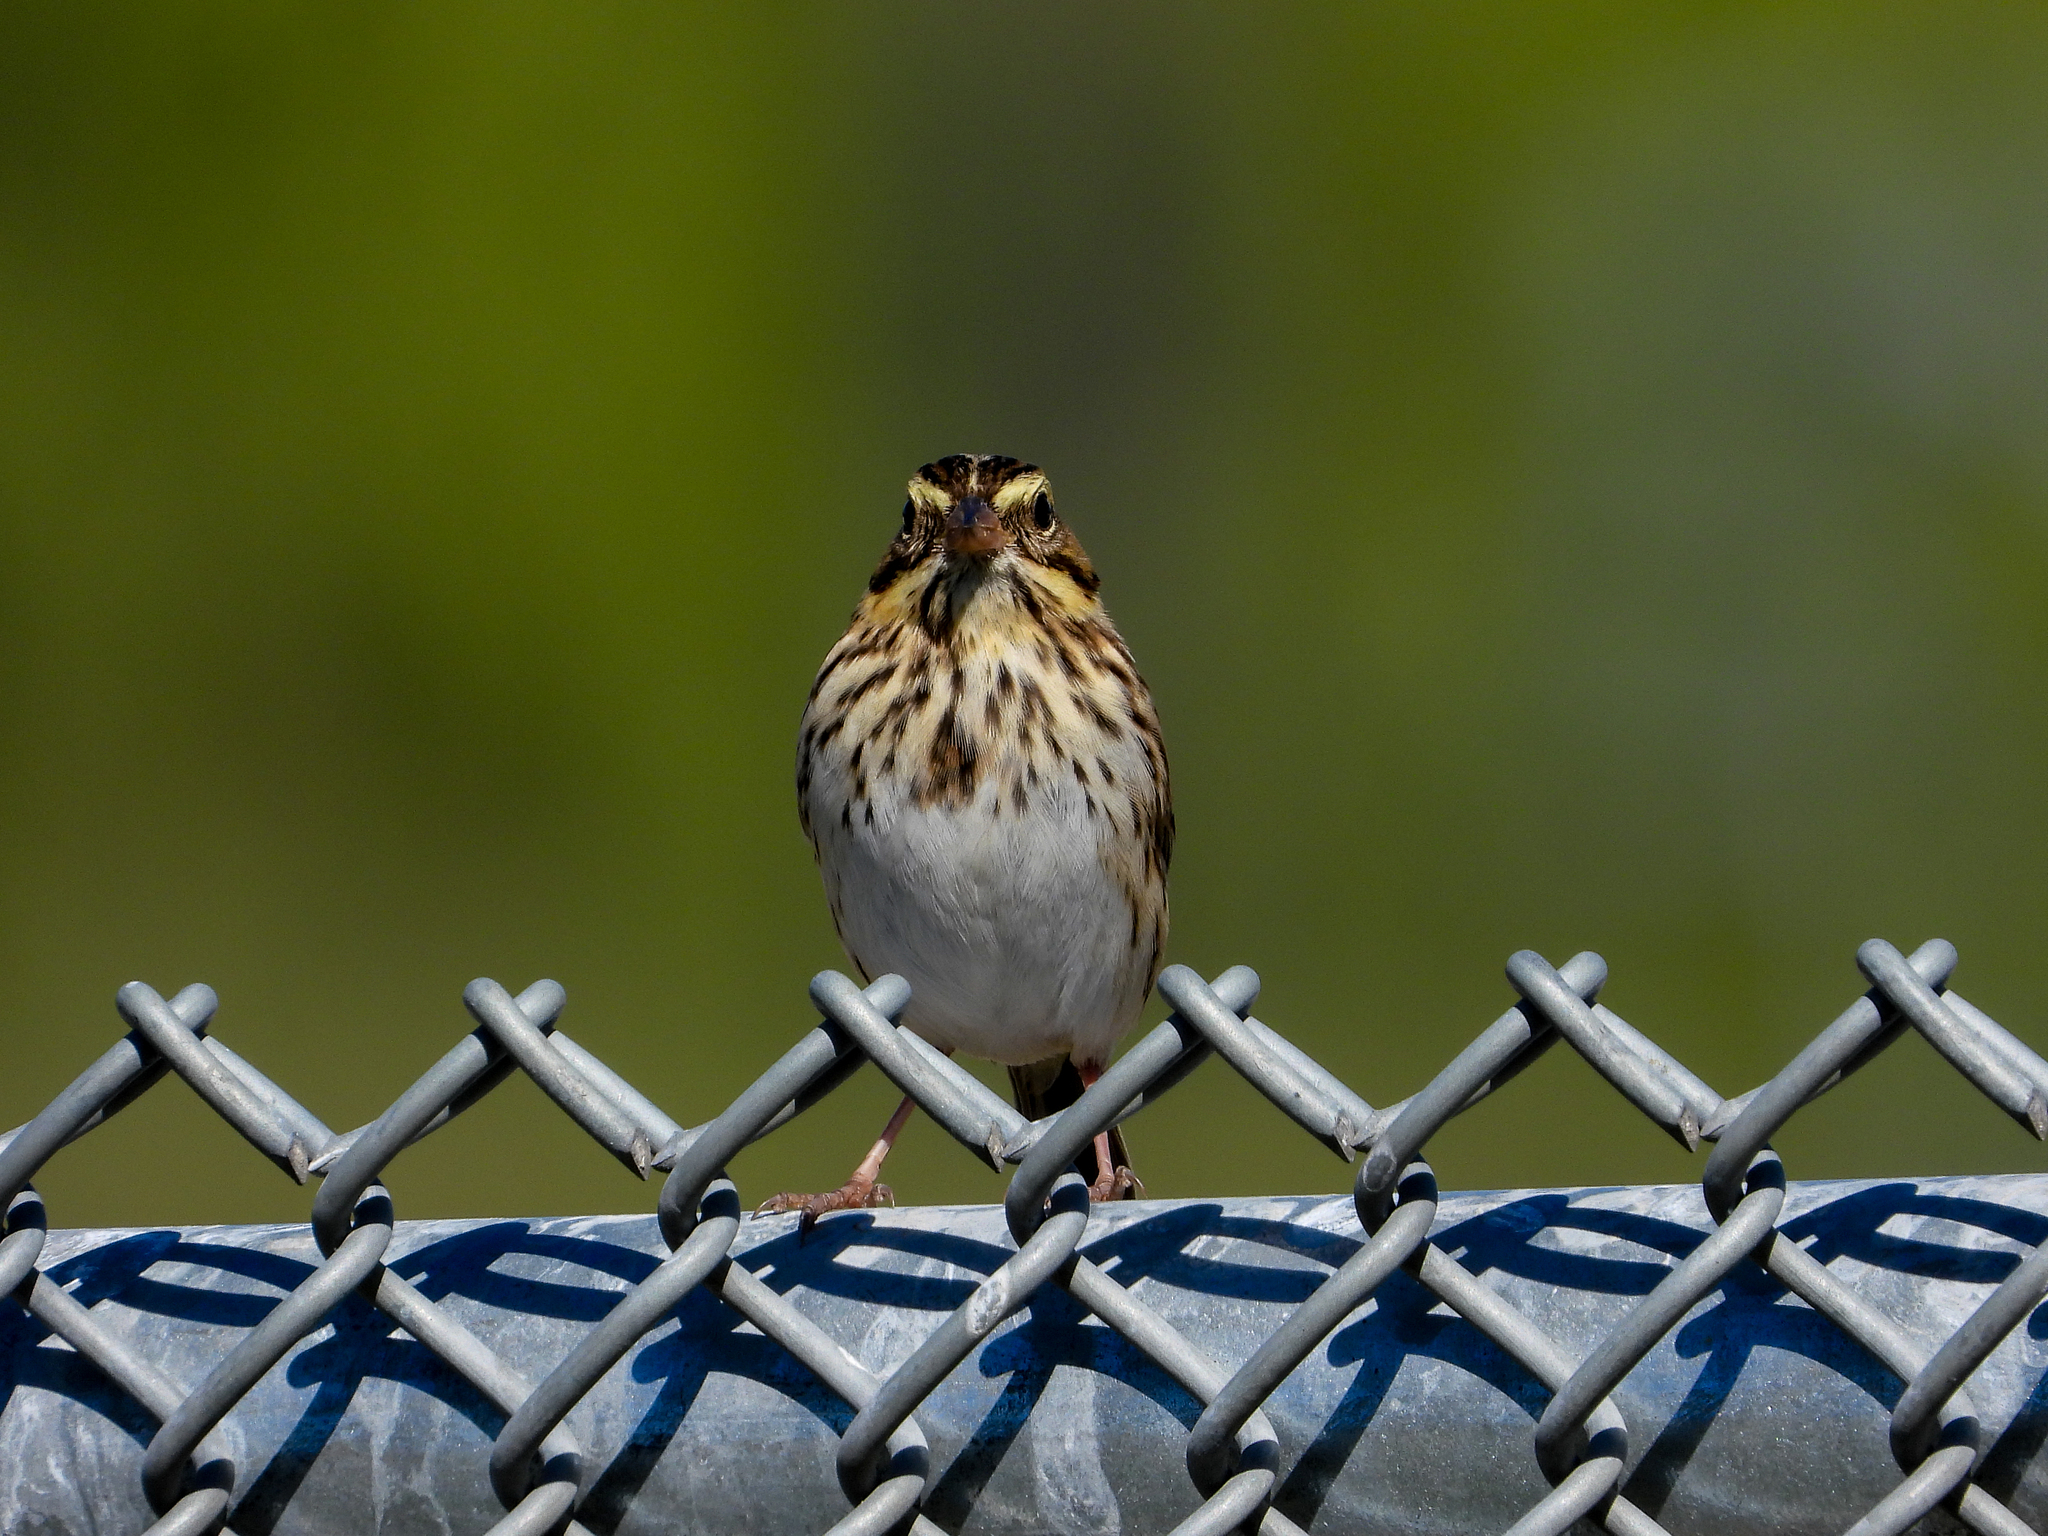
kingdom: Animalia
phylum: Chordata
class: Aves
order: Passeriformes
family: Passerellidae
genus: Passerculus
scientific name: Passerculus sandwichensis
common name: Savannah sparrow
